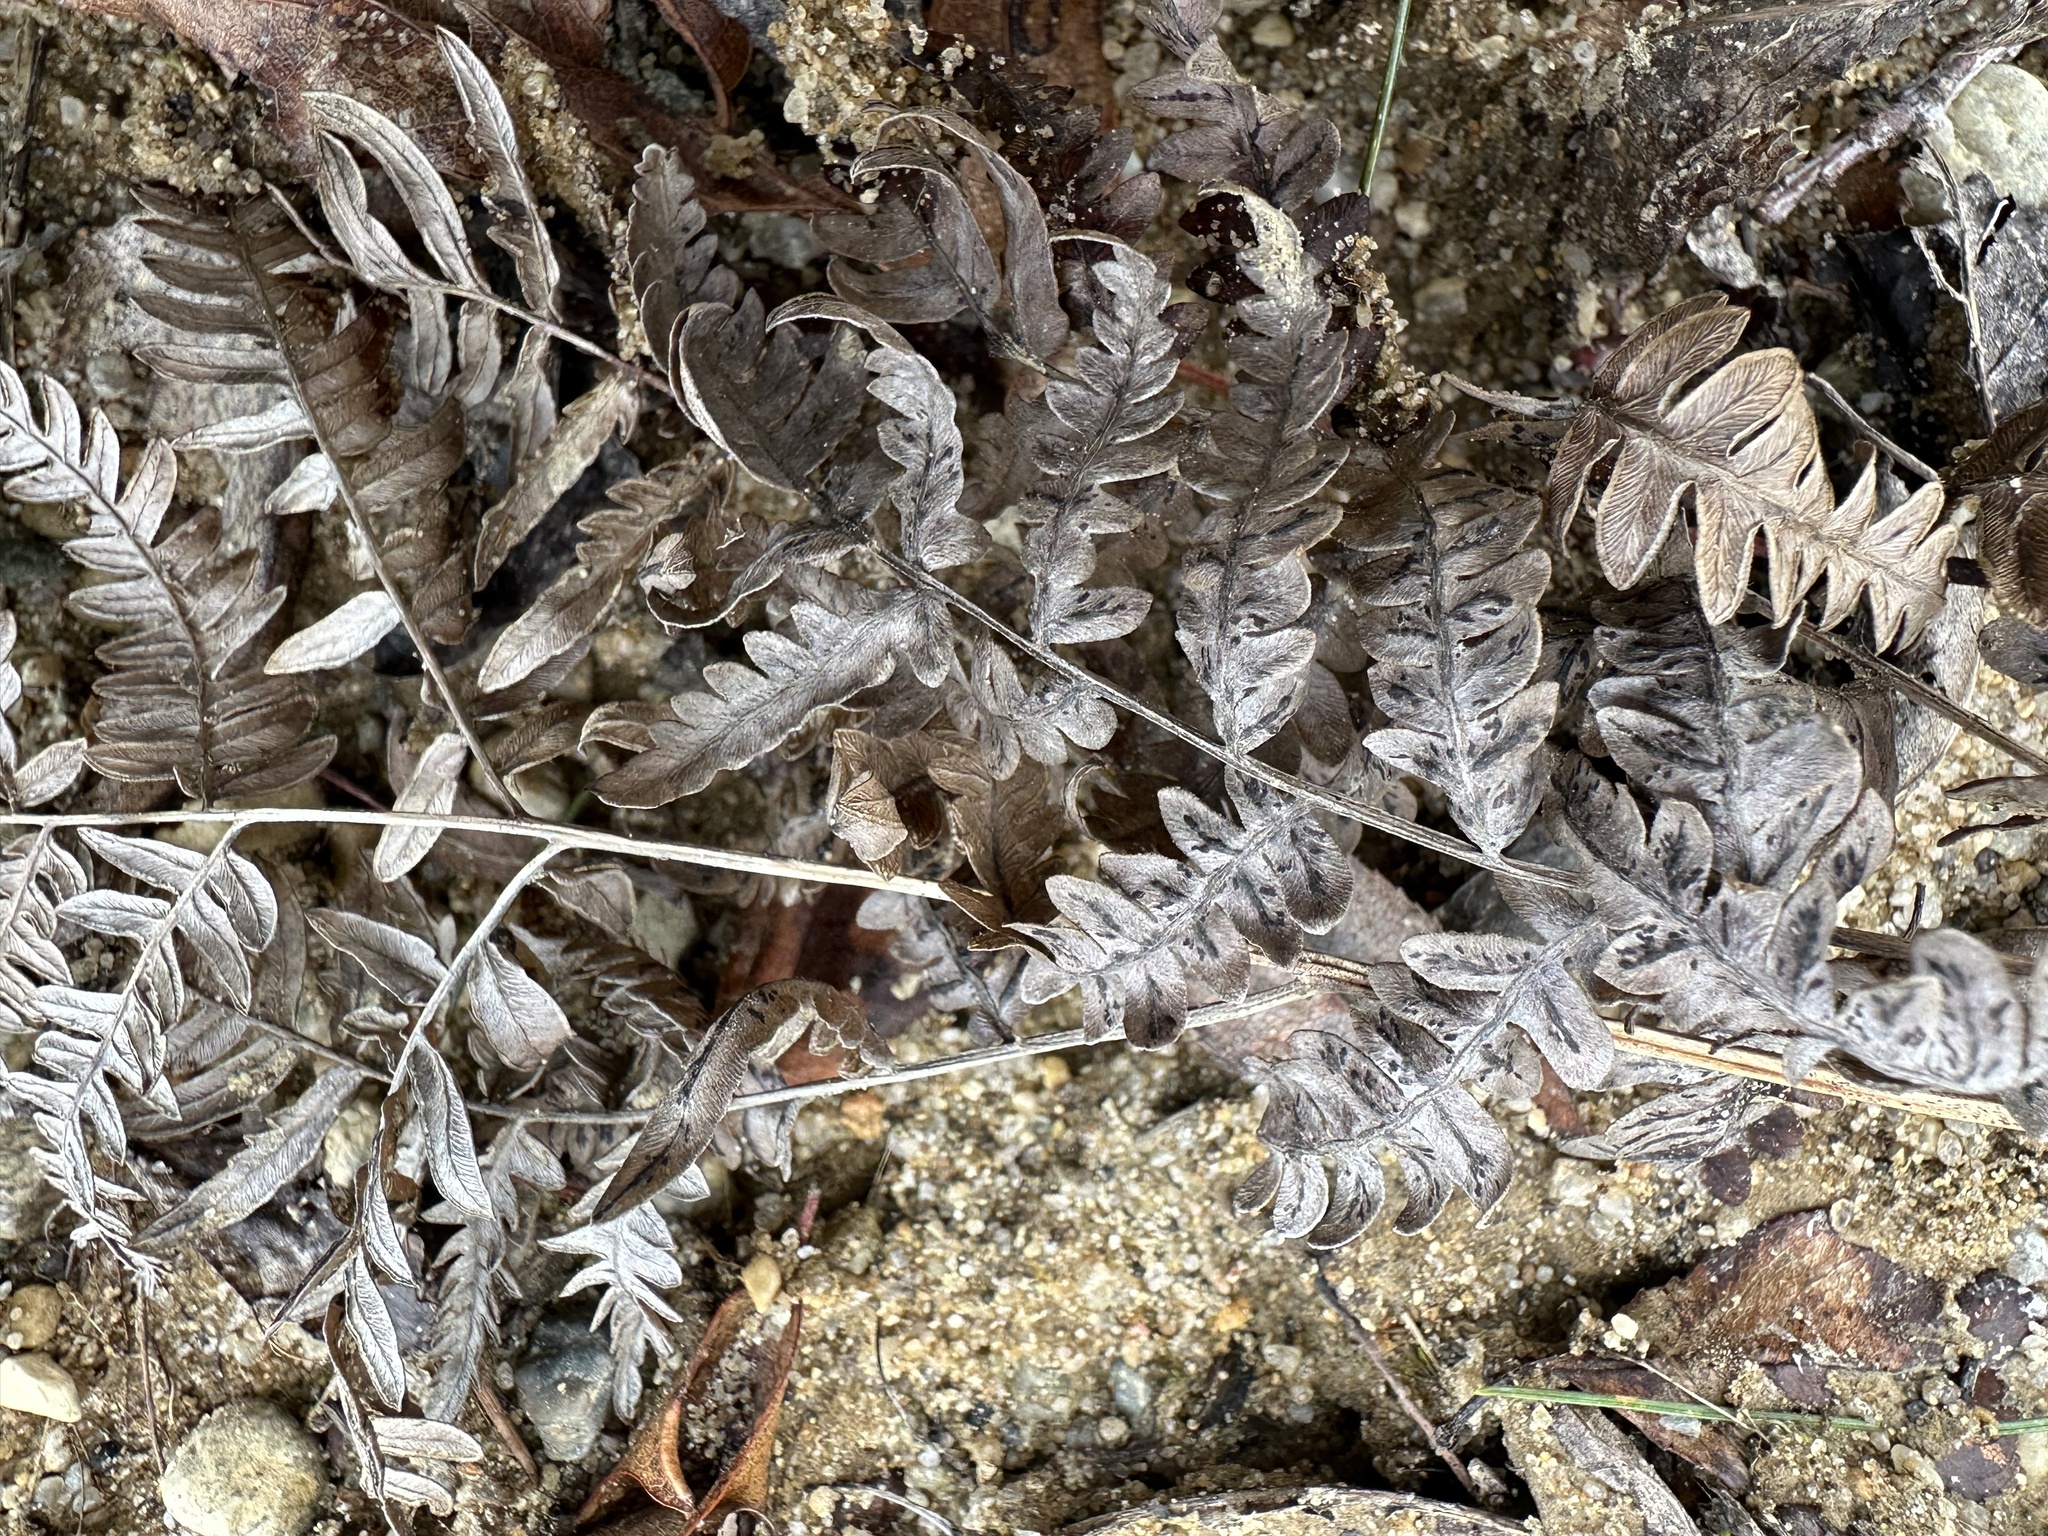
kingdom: Plantae
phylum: Tracheophyta
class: Polypodiopsida
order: Polypodiales
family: Dennstaedtiaceae
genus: Pteridium
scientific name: Pteridium aquilinum
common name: Bracken
